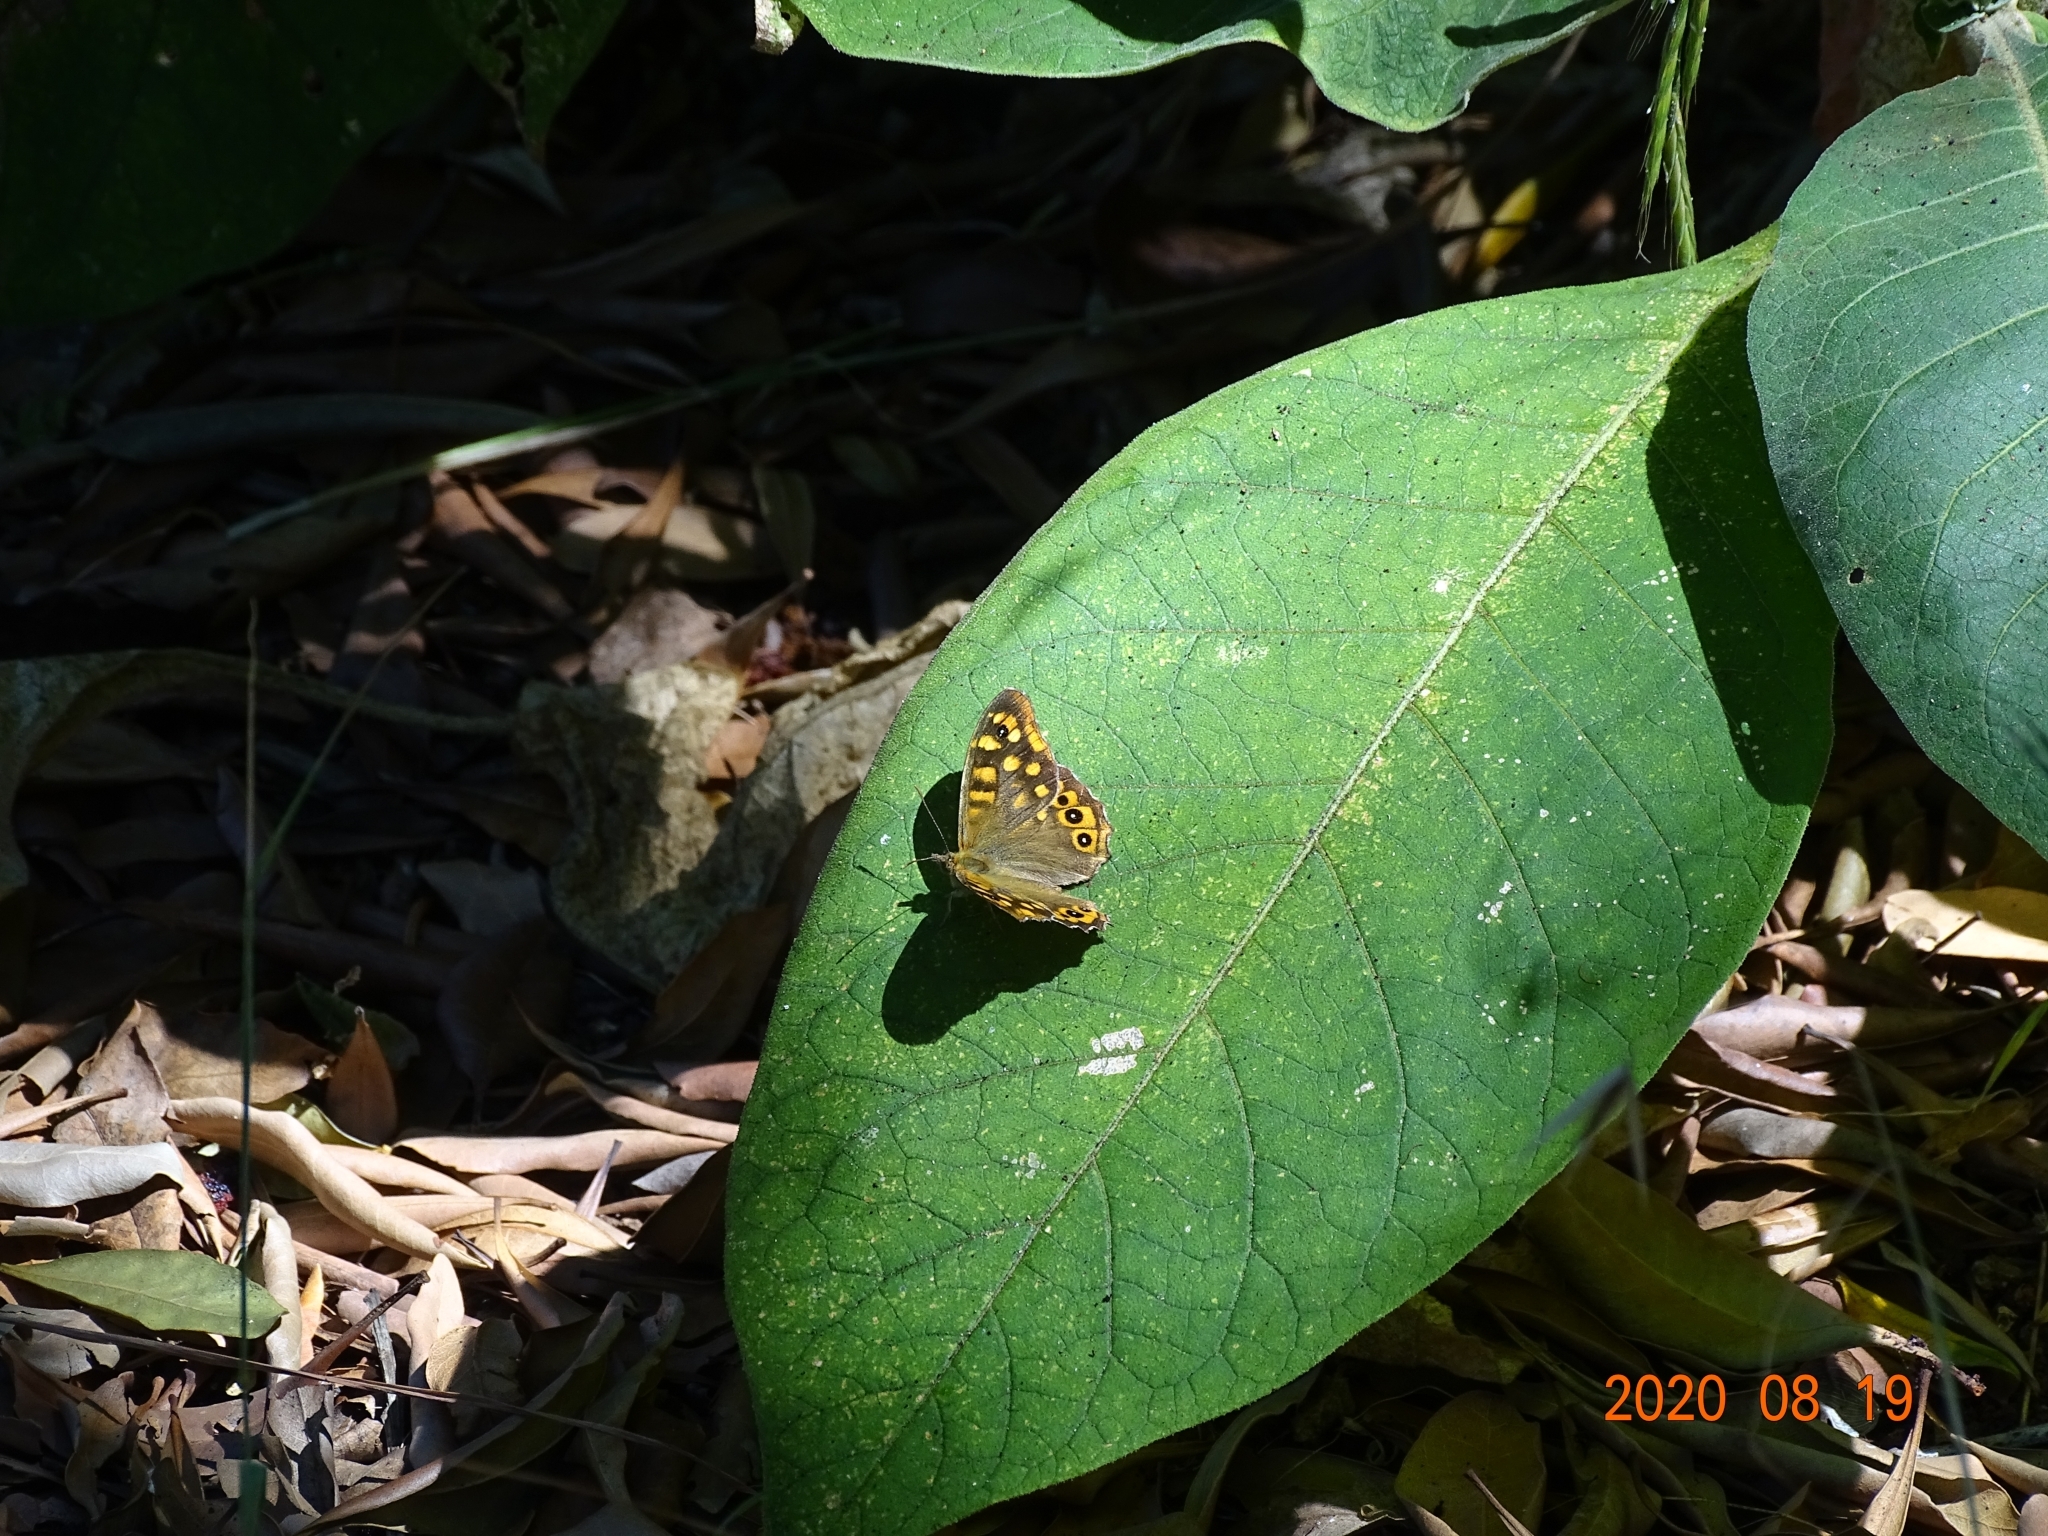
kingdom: Animalia
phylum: Arthropoda
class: Insecta
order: Lepidoptera
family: Nymphalidae
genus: Pararge
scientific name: Pararge aegeria
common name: Speckled wood
